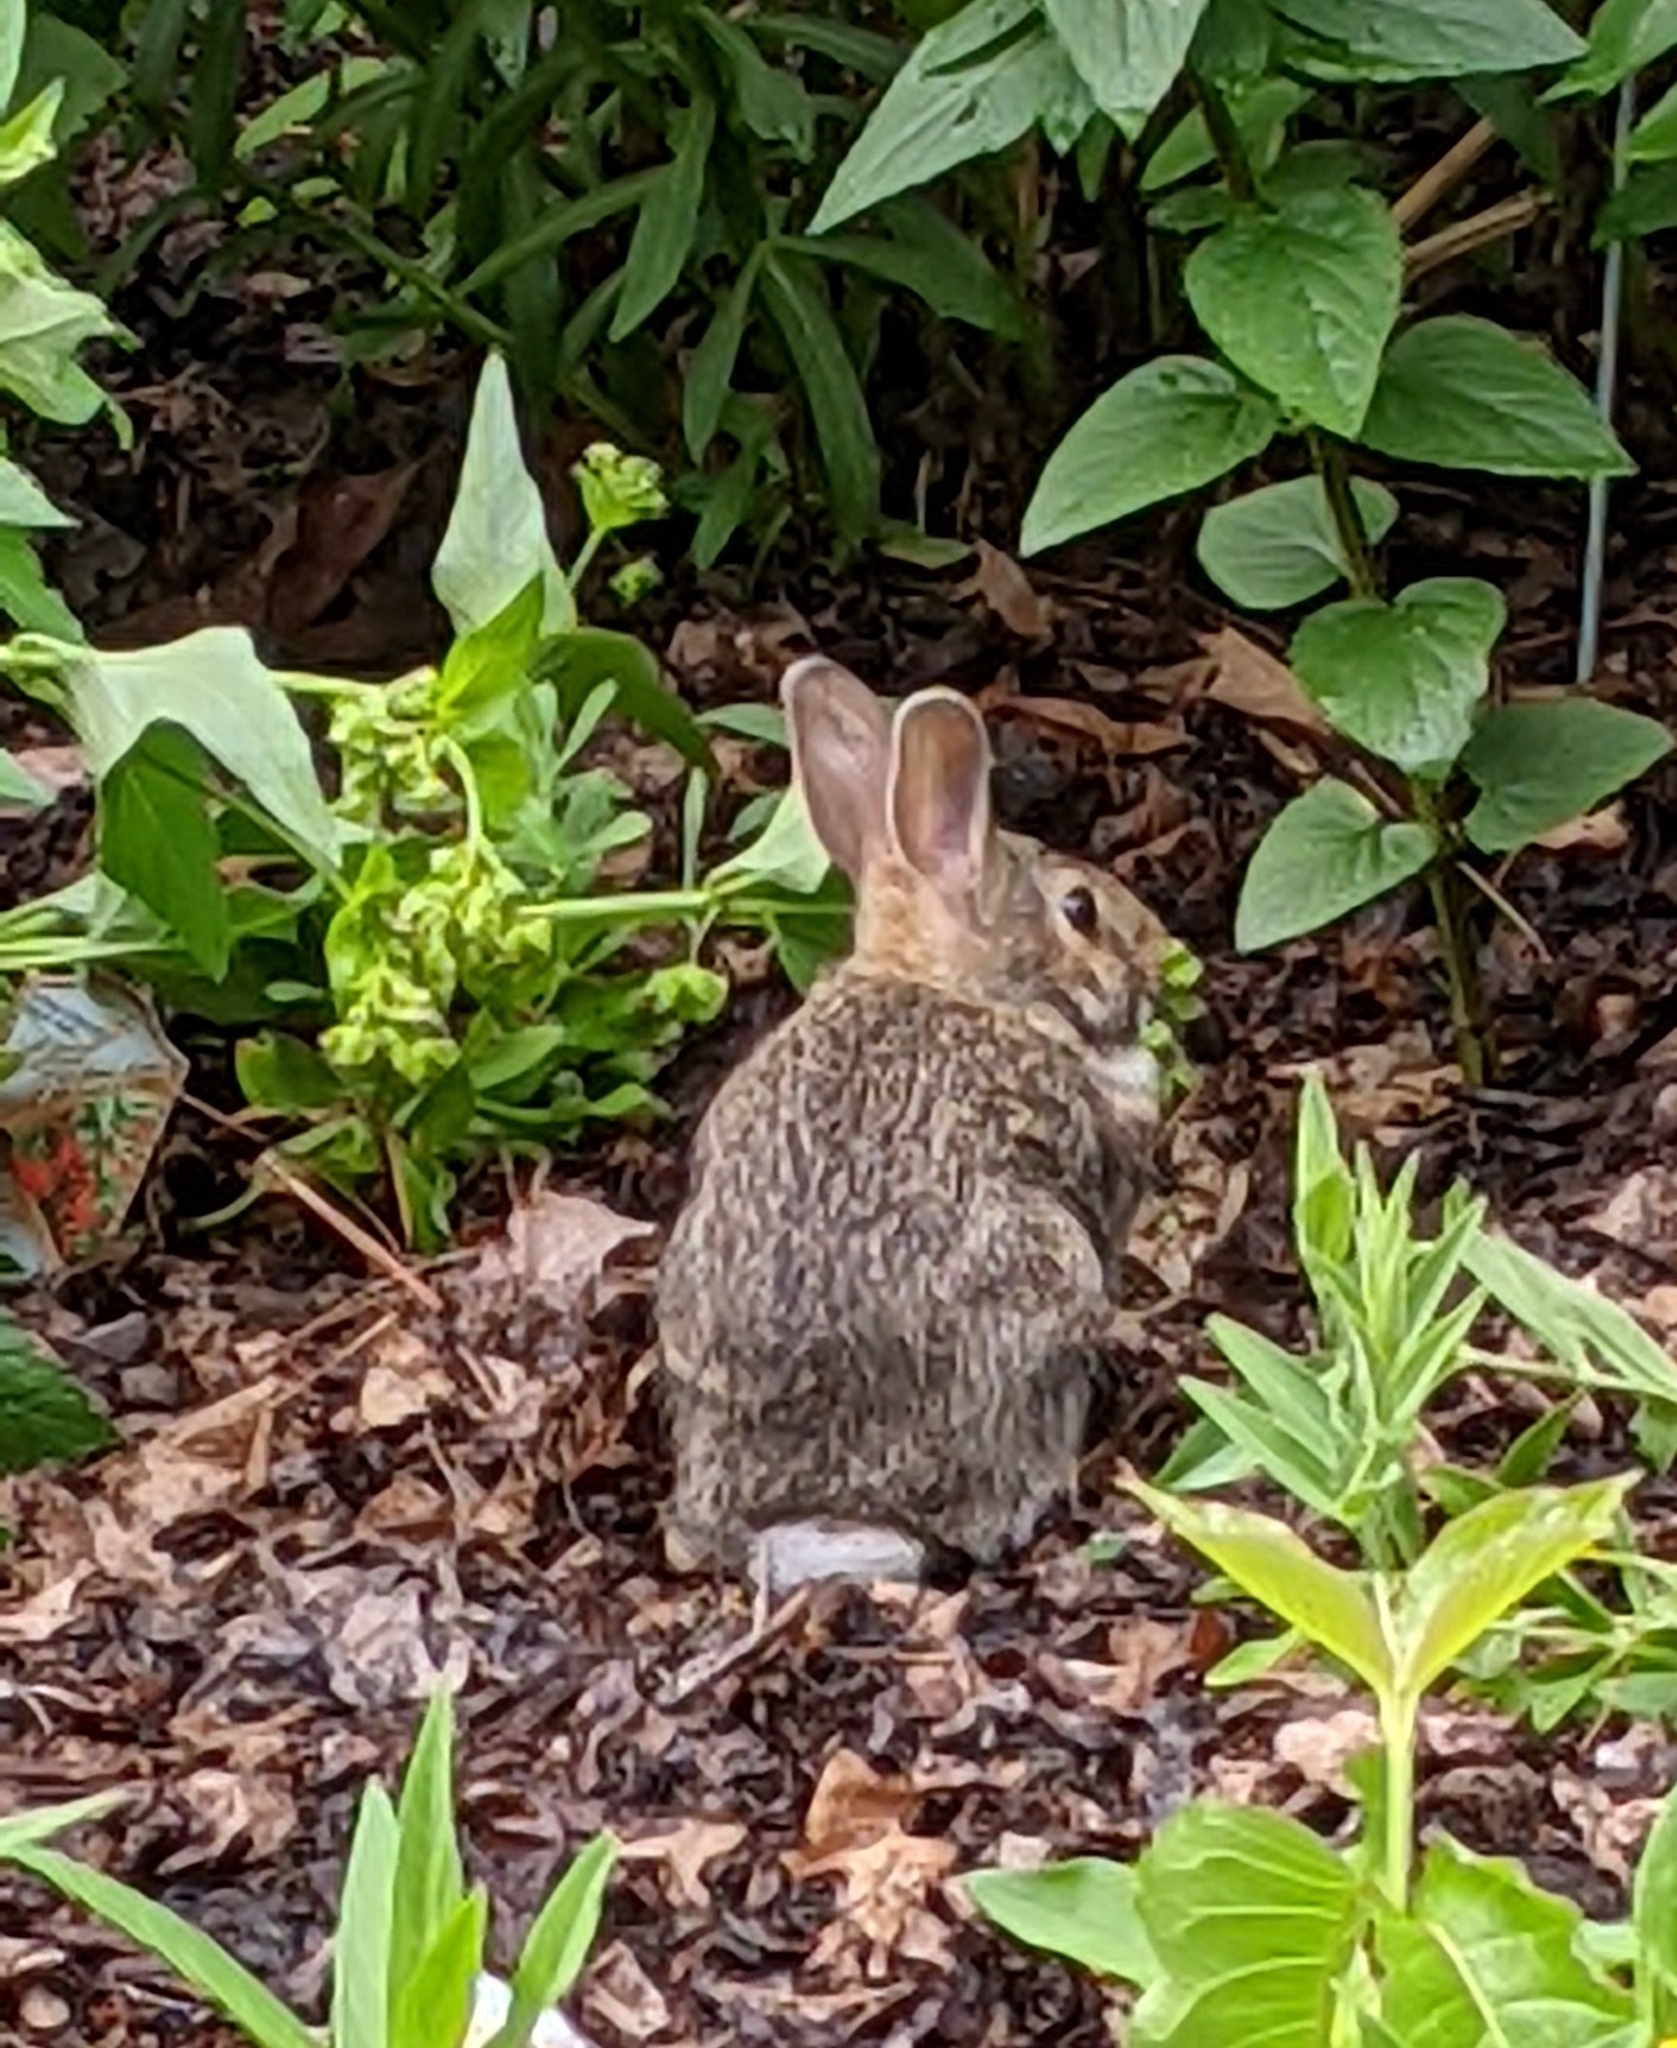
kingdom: Animalia
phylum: Chordata
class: Mammalia
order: Lagomorpha
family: Leporidae
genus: Sylvilagus
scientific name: Sylvilagus floridanus
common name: Eastern cottontail
